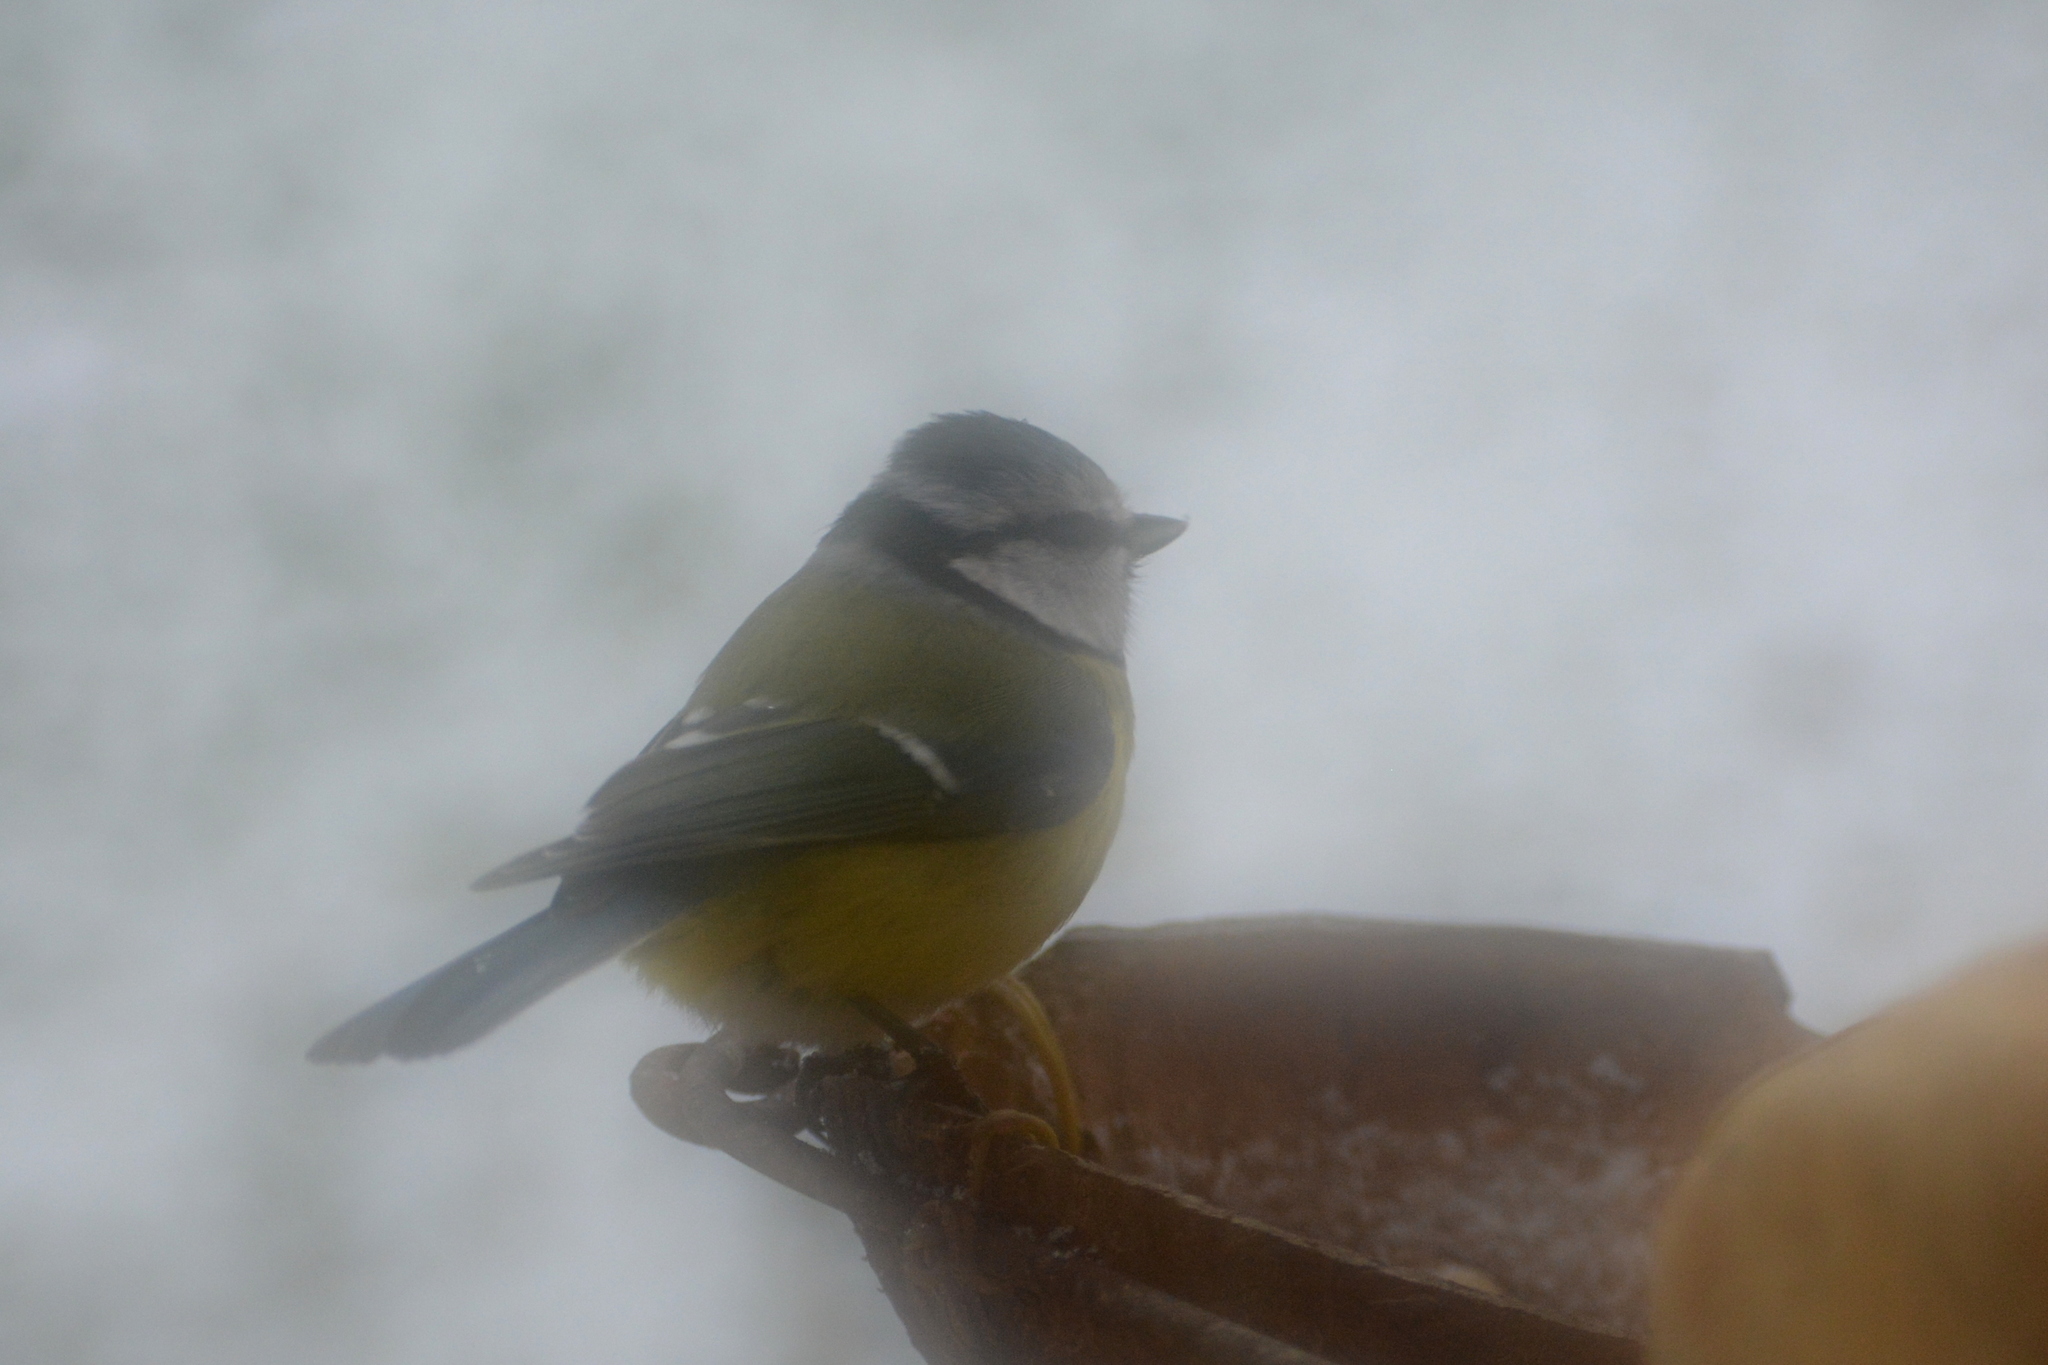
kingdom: Animalia
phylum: Chordata
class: Aves
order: Passeriformes
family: Paridae
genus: Cyanistes
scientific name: Cyanistes caeruleus
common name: Eurasian blue tit
